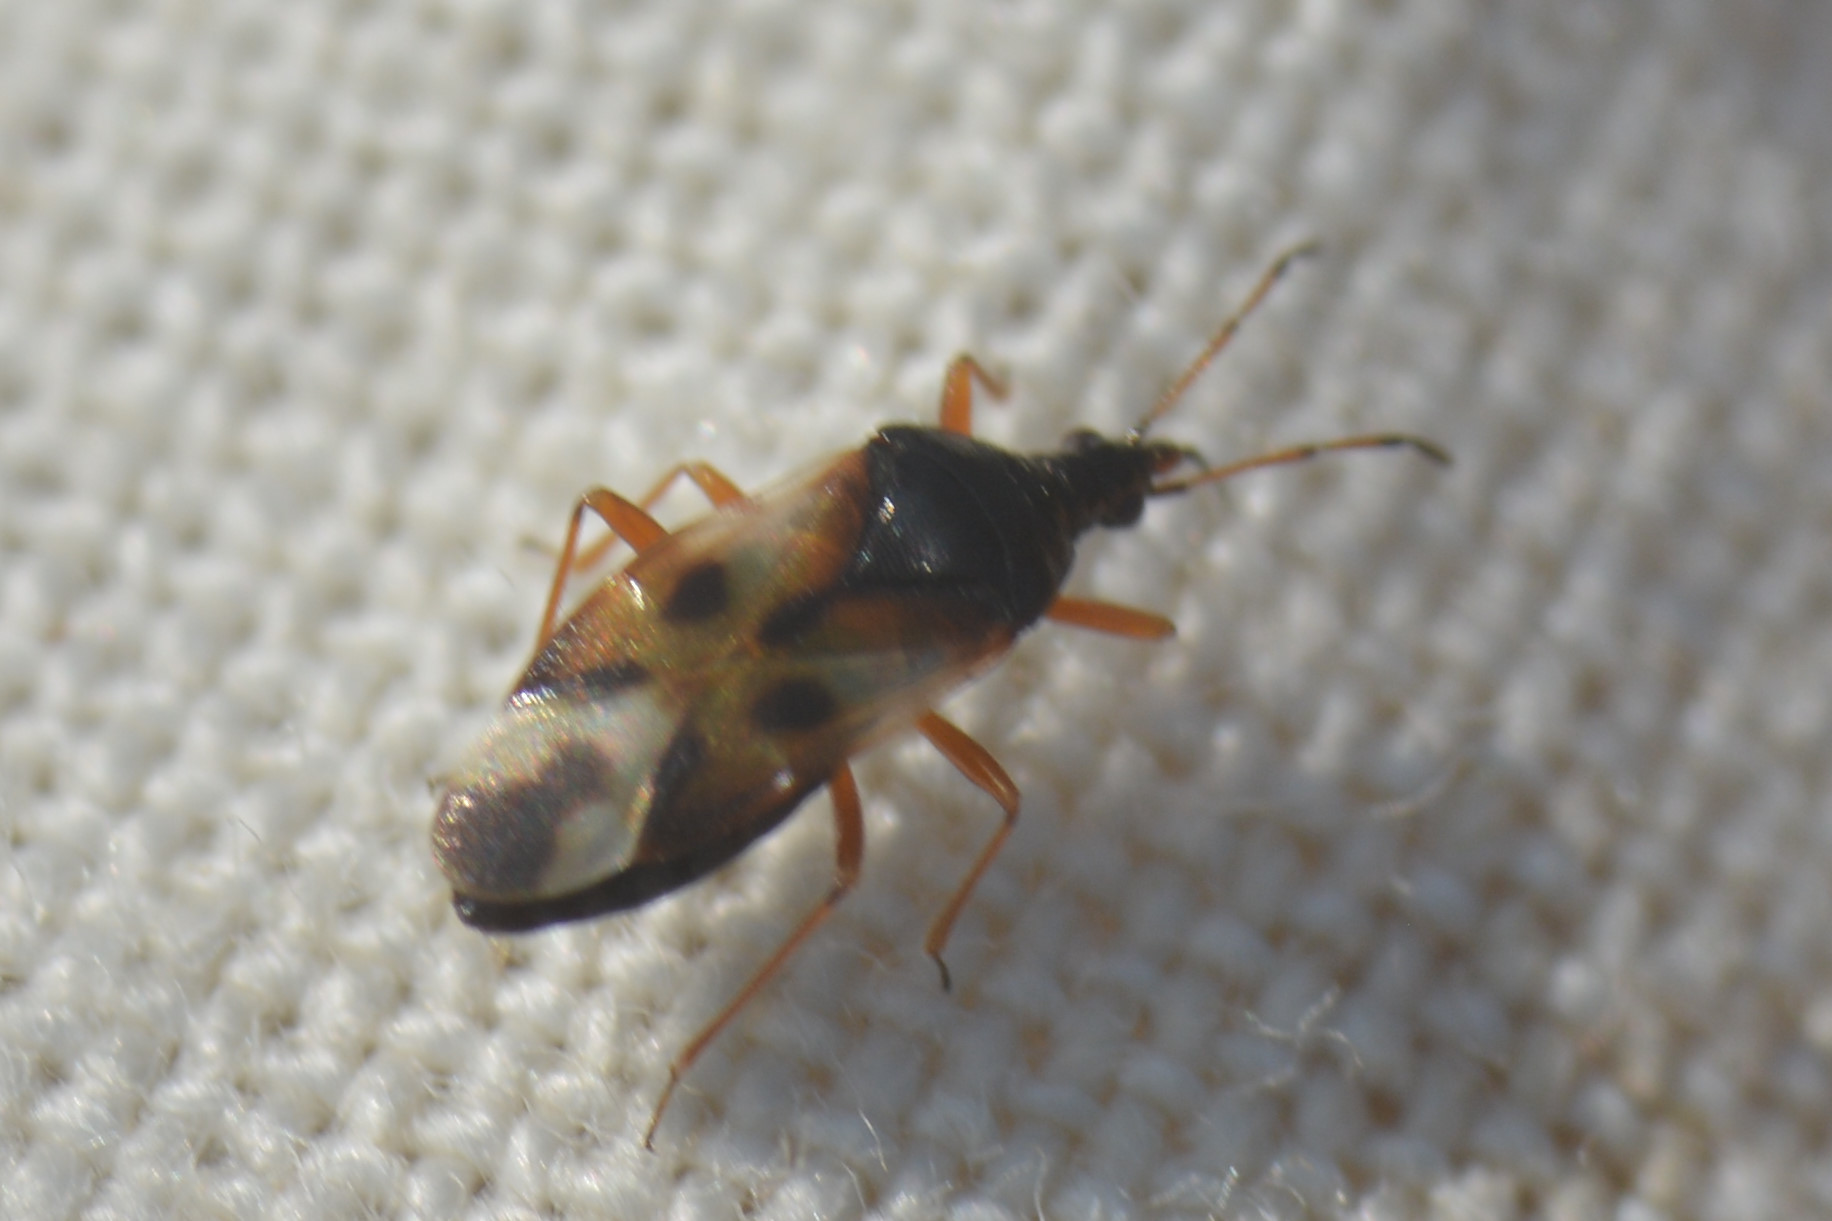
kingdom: Animalia
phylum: Arthropoda
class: Insecta
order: Hemiptera
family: Anthocoridae
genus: Anthocoris
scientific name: Anthocoris nemorum
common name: Minute pirate bug
